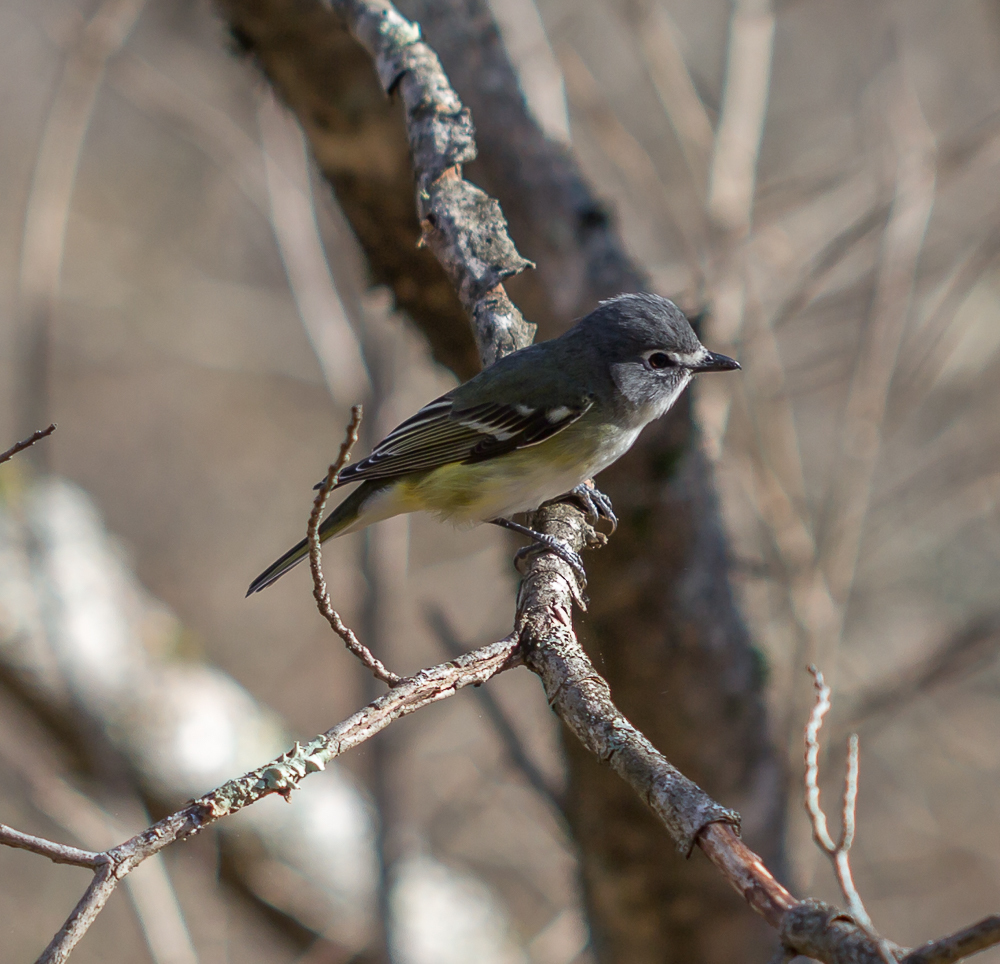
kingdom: Animalia
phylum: Chordata
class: Aves
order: Passeriformes
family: Vireonidae
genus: Vireo
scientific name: Vireo solitarius
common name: Blue-headed vireo
